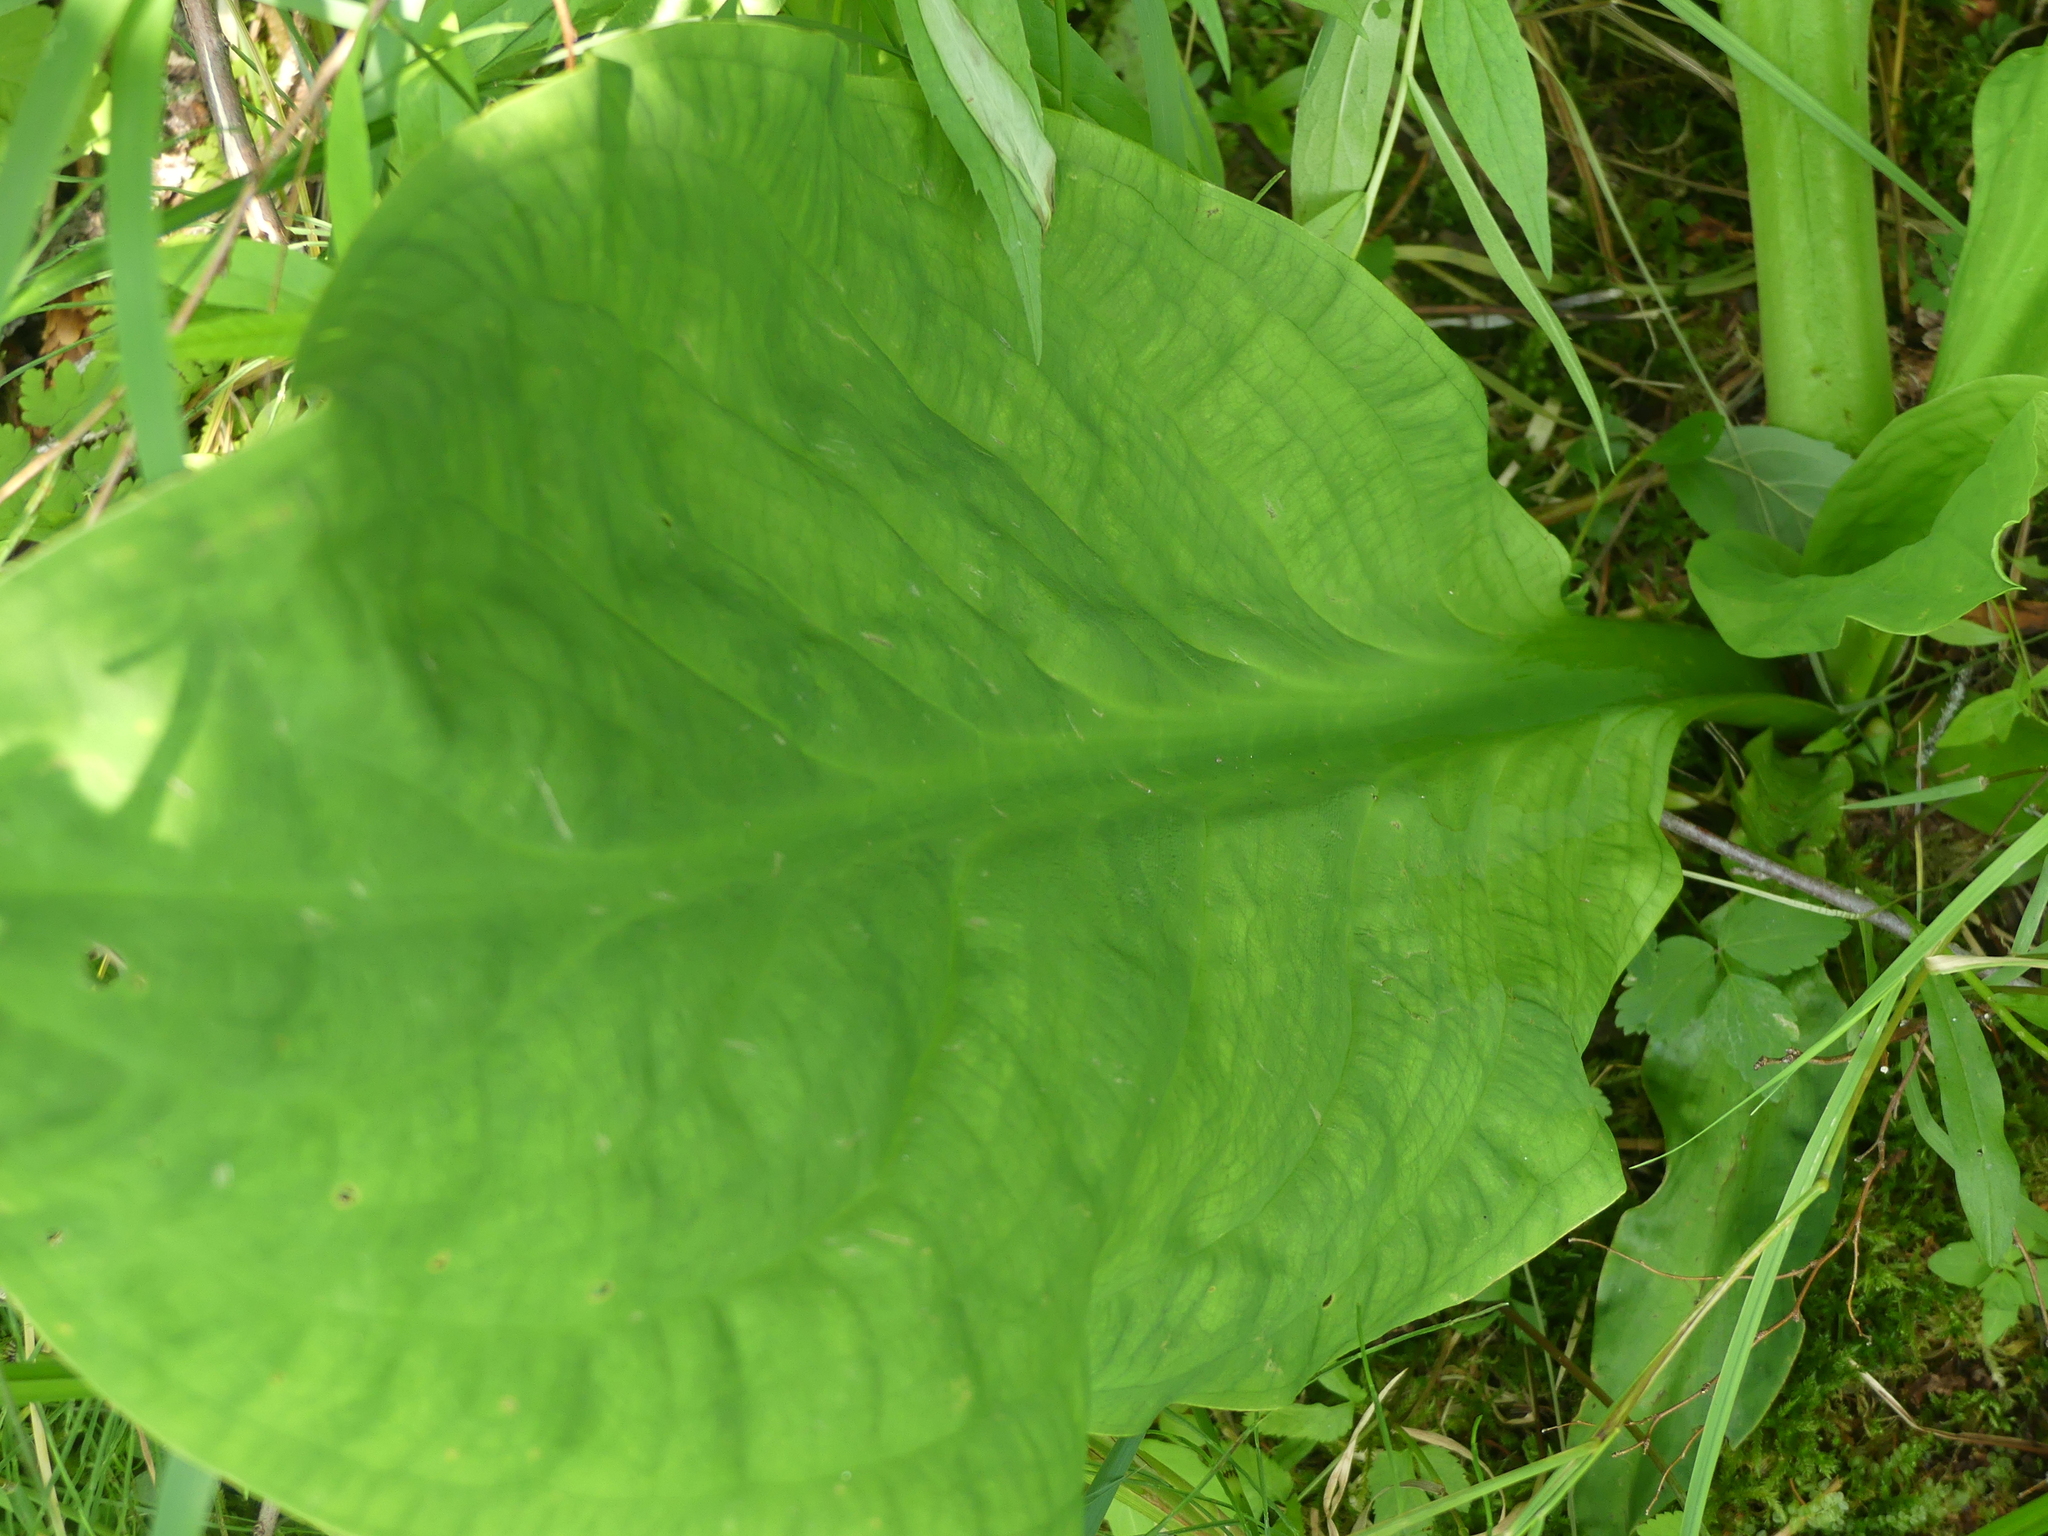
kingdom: Plantae
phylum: Tracheophyta
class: Liliopsida
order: Alismatales
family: Araceae
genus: Lysichiton
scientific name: Lysichiton americanus
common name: American skunk cabbage
